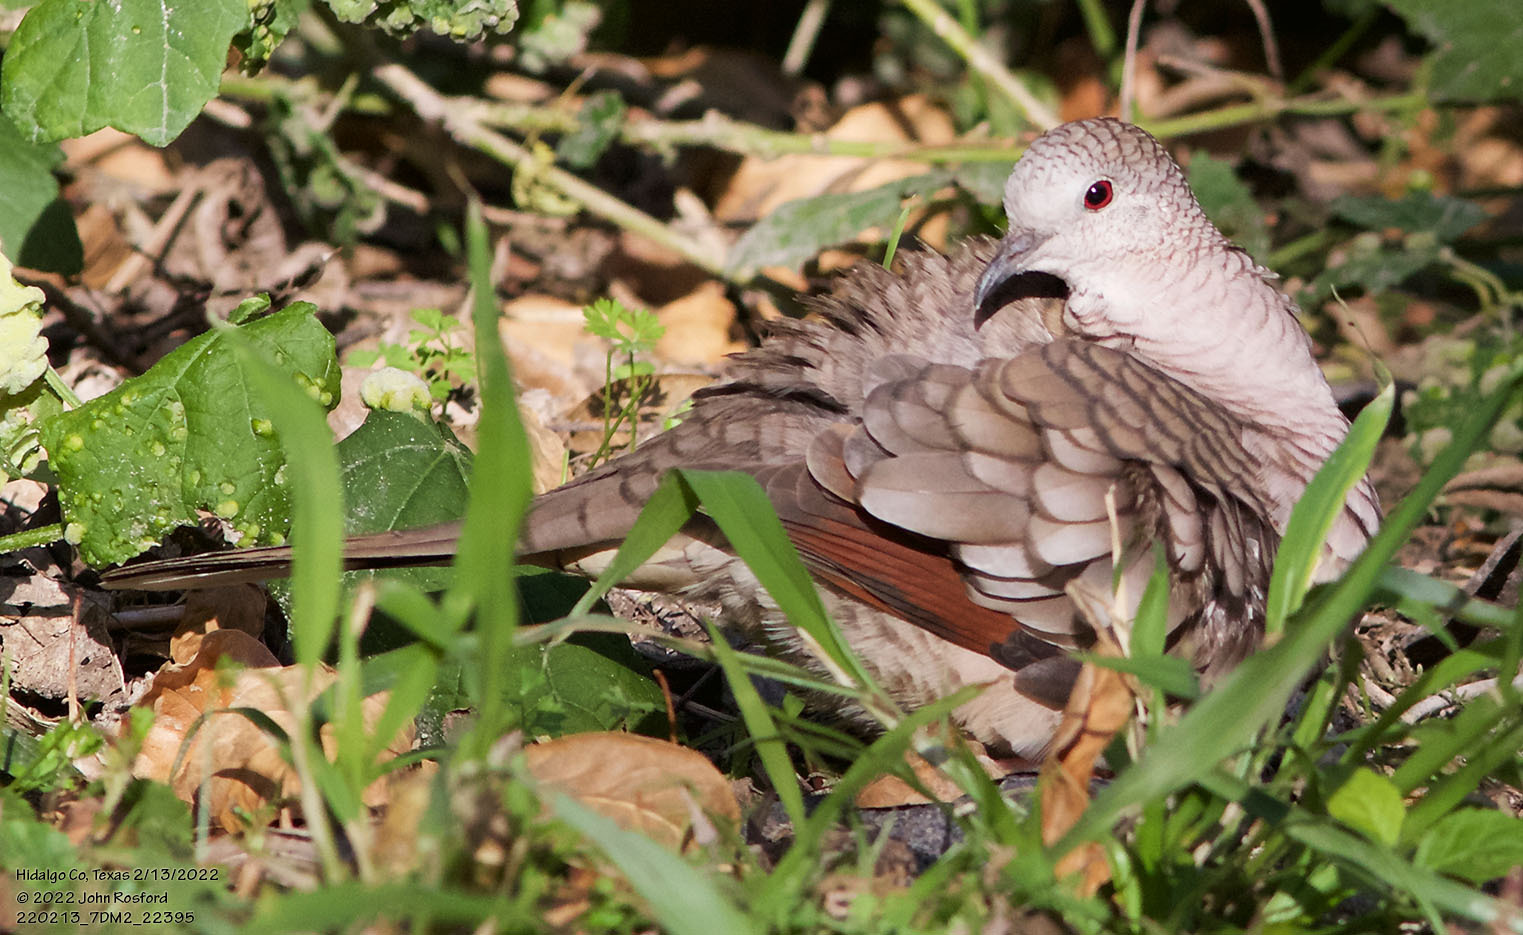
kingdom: Animalia
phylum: Chordata
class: Aves
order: Columbiformes
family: Columbidae
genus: Columbina
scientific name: Columbina inca
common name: Inca dove
